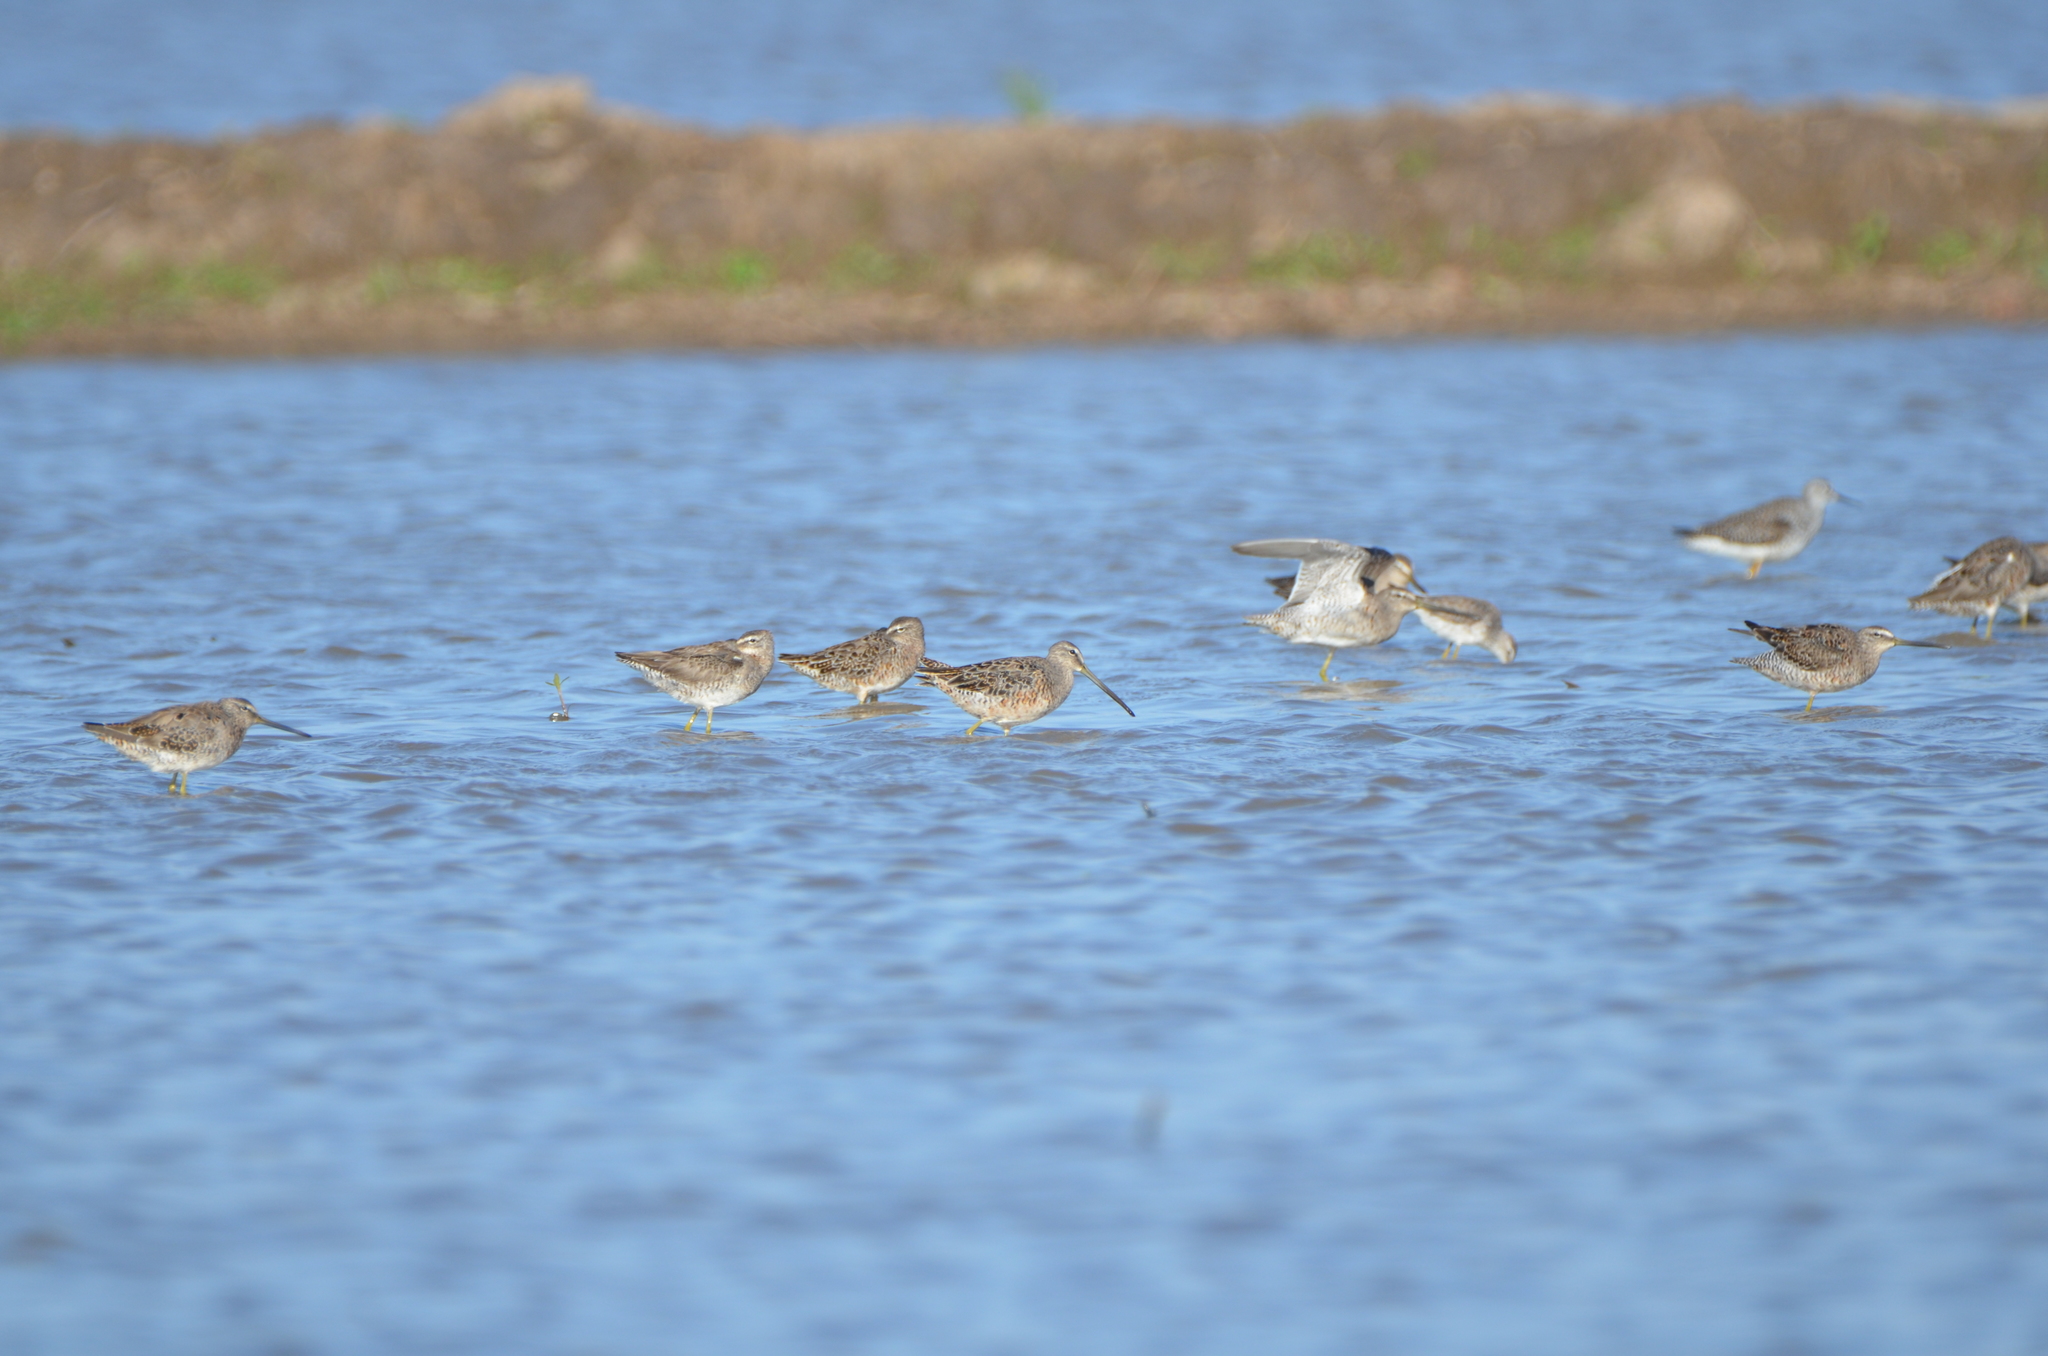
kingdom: Animalia
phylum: Chordata
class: Aves
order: Charadriiformes
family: Scolopacidae
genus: Limnodromus
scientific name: Limnodromus scolopaceus
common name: Long-billed dowitcher
